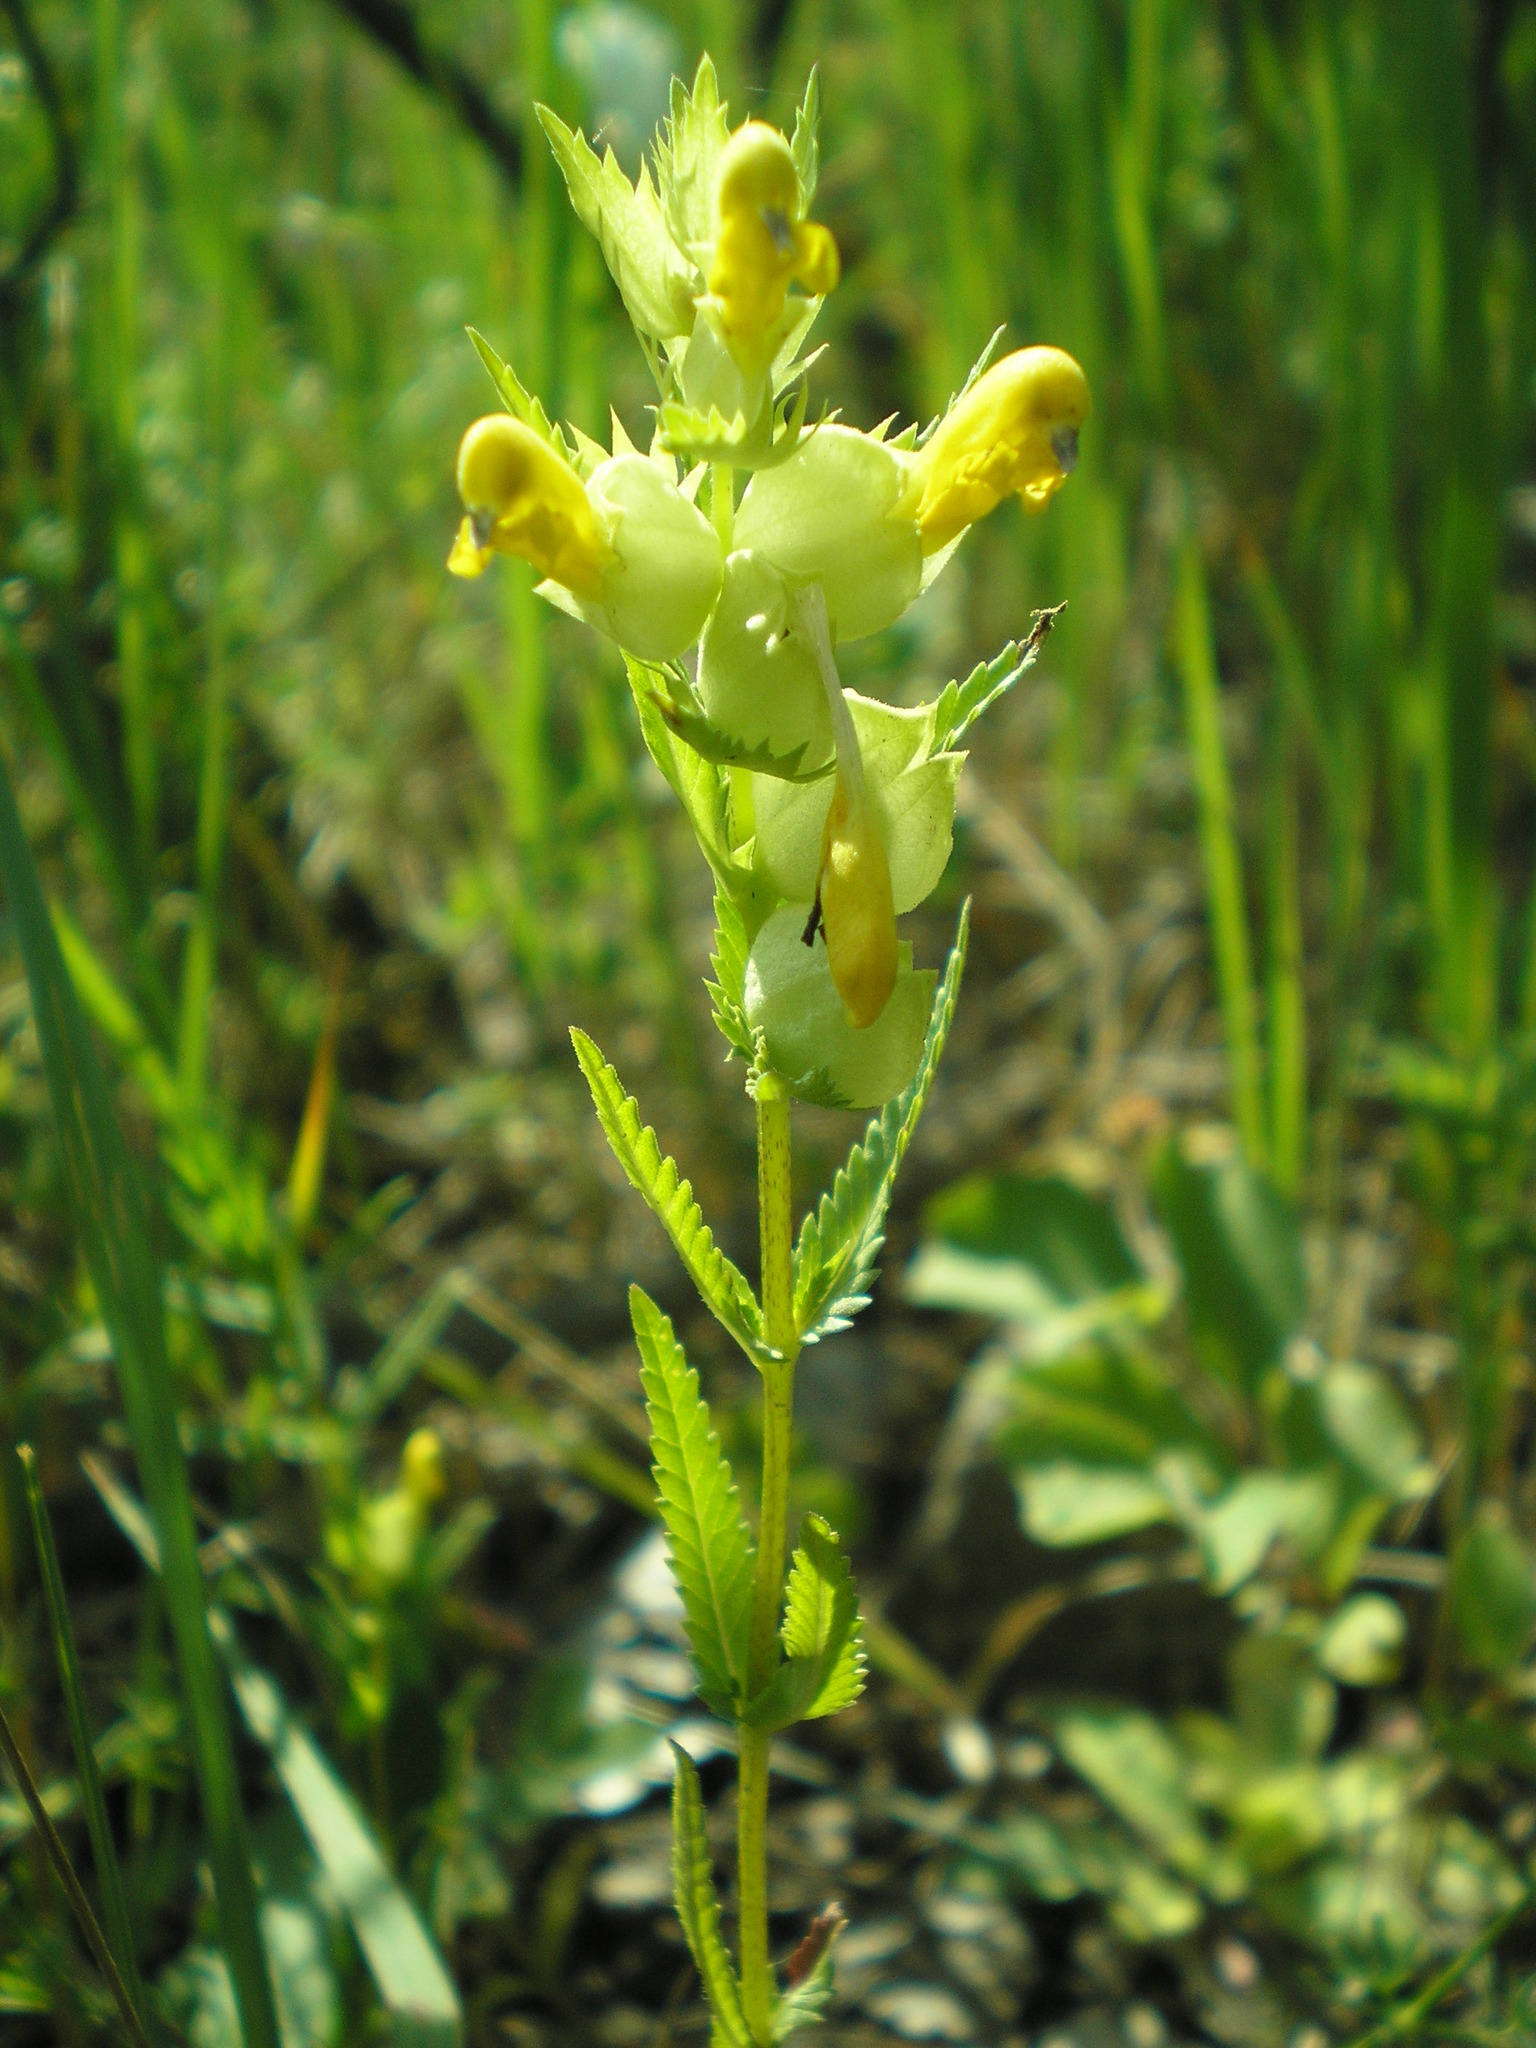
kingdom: Plantae
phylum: Tracheophyta
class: Magnoliopsida
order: Lamiales
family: Orobanchaceae
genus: Rhinanthus
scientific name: Rhinanthus serotinus
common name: Late-flowering yellow rattle
